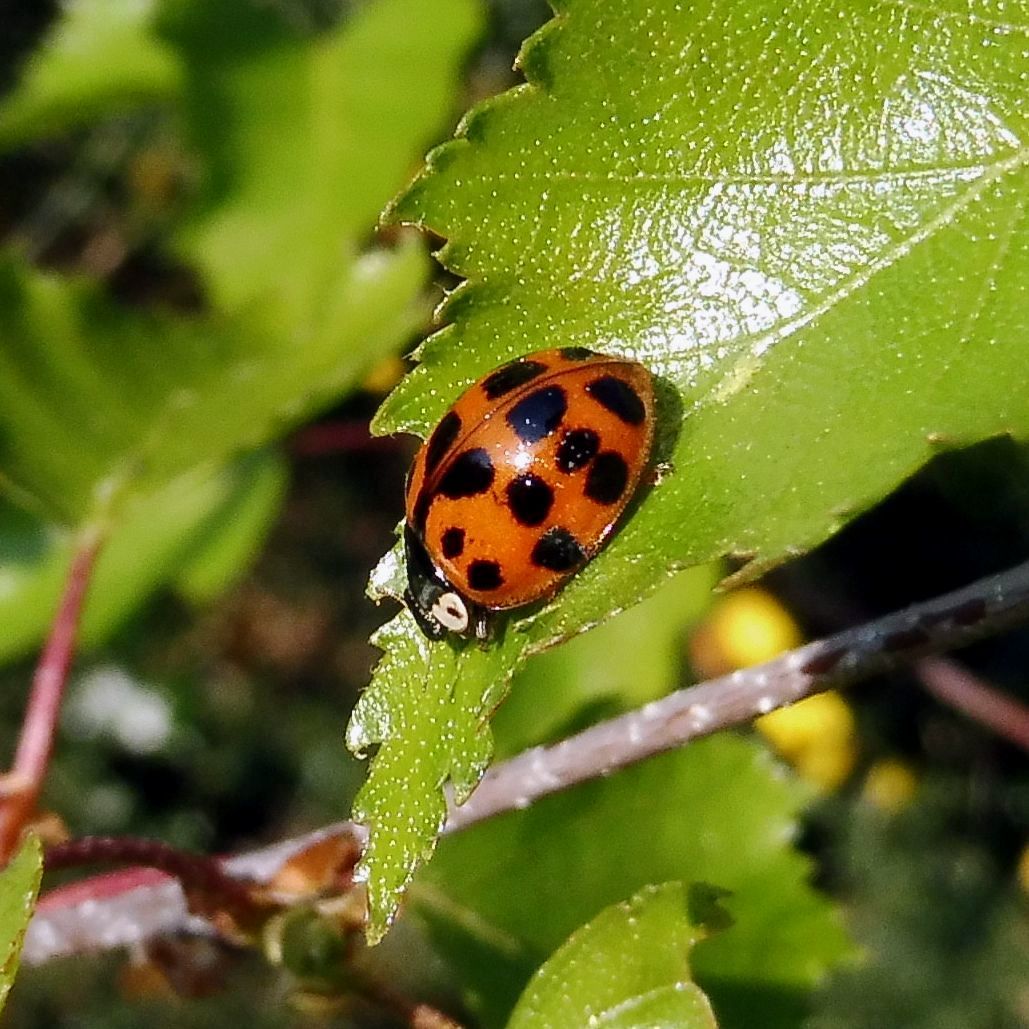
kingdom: Animalia
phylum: Arthropoda
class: Insecta
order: Coleoptera
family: Coccinellidae
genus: Harmonia
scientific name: Harmonia axyridis
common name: Harlequin ladybird
